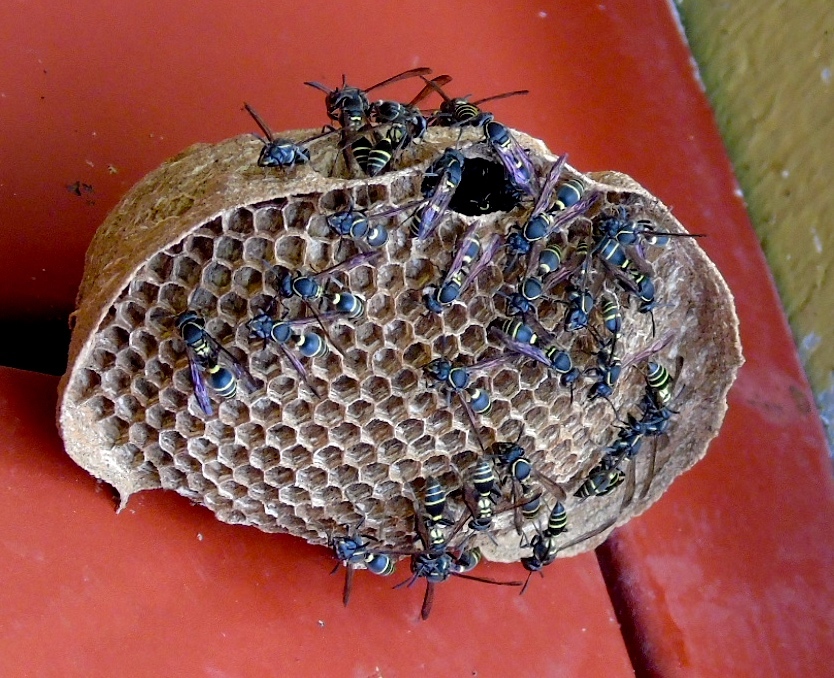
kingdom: Animalia
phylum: Arthropoda
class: Insecta
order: Hymenoptera
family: Vespidae
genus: Myrapetra
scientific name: Myrapetra
